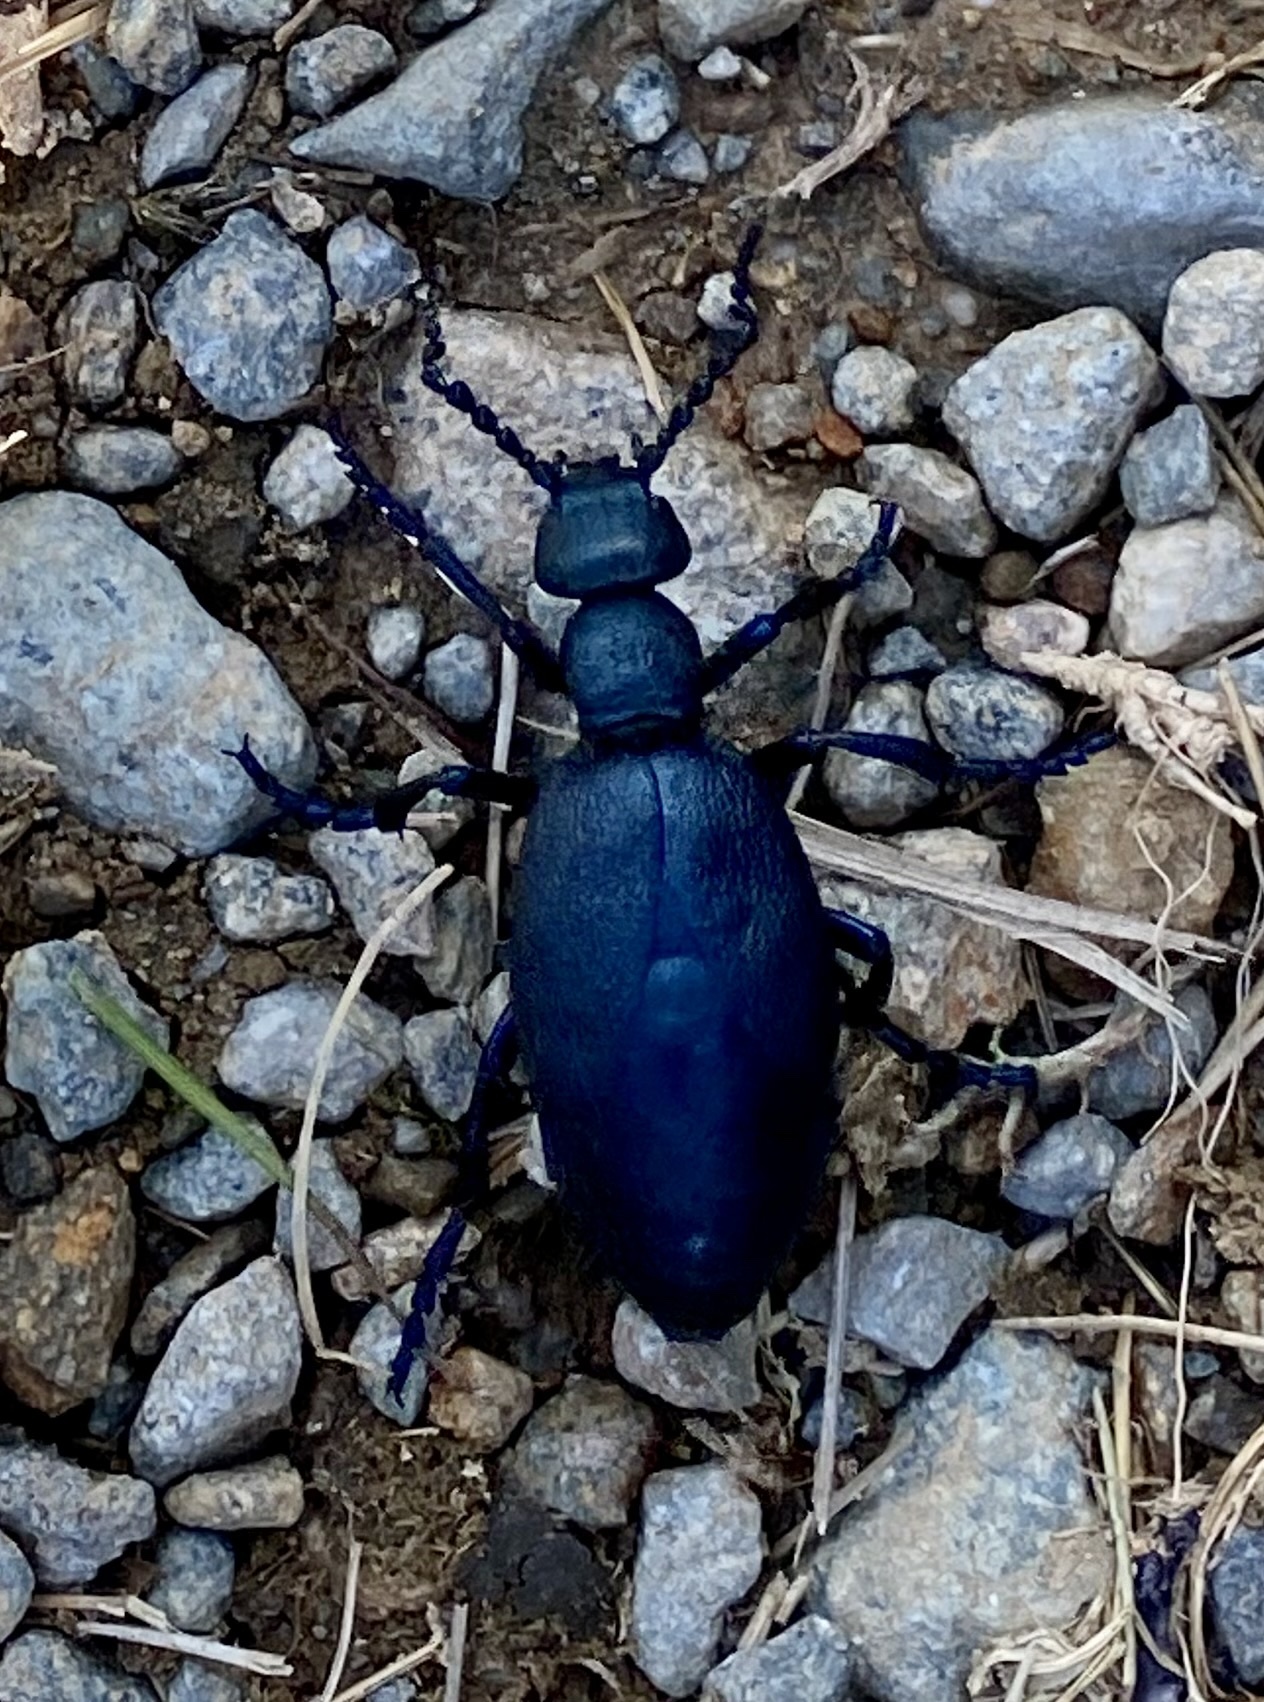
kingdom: Animalia
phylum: Arthropoda
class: Insecta
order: Coleoptera
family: Meloidae
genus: Meloe
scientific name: Meloe violaceus
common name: Violet oil-beetle
